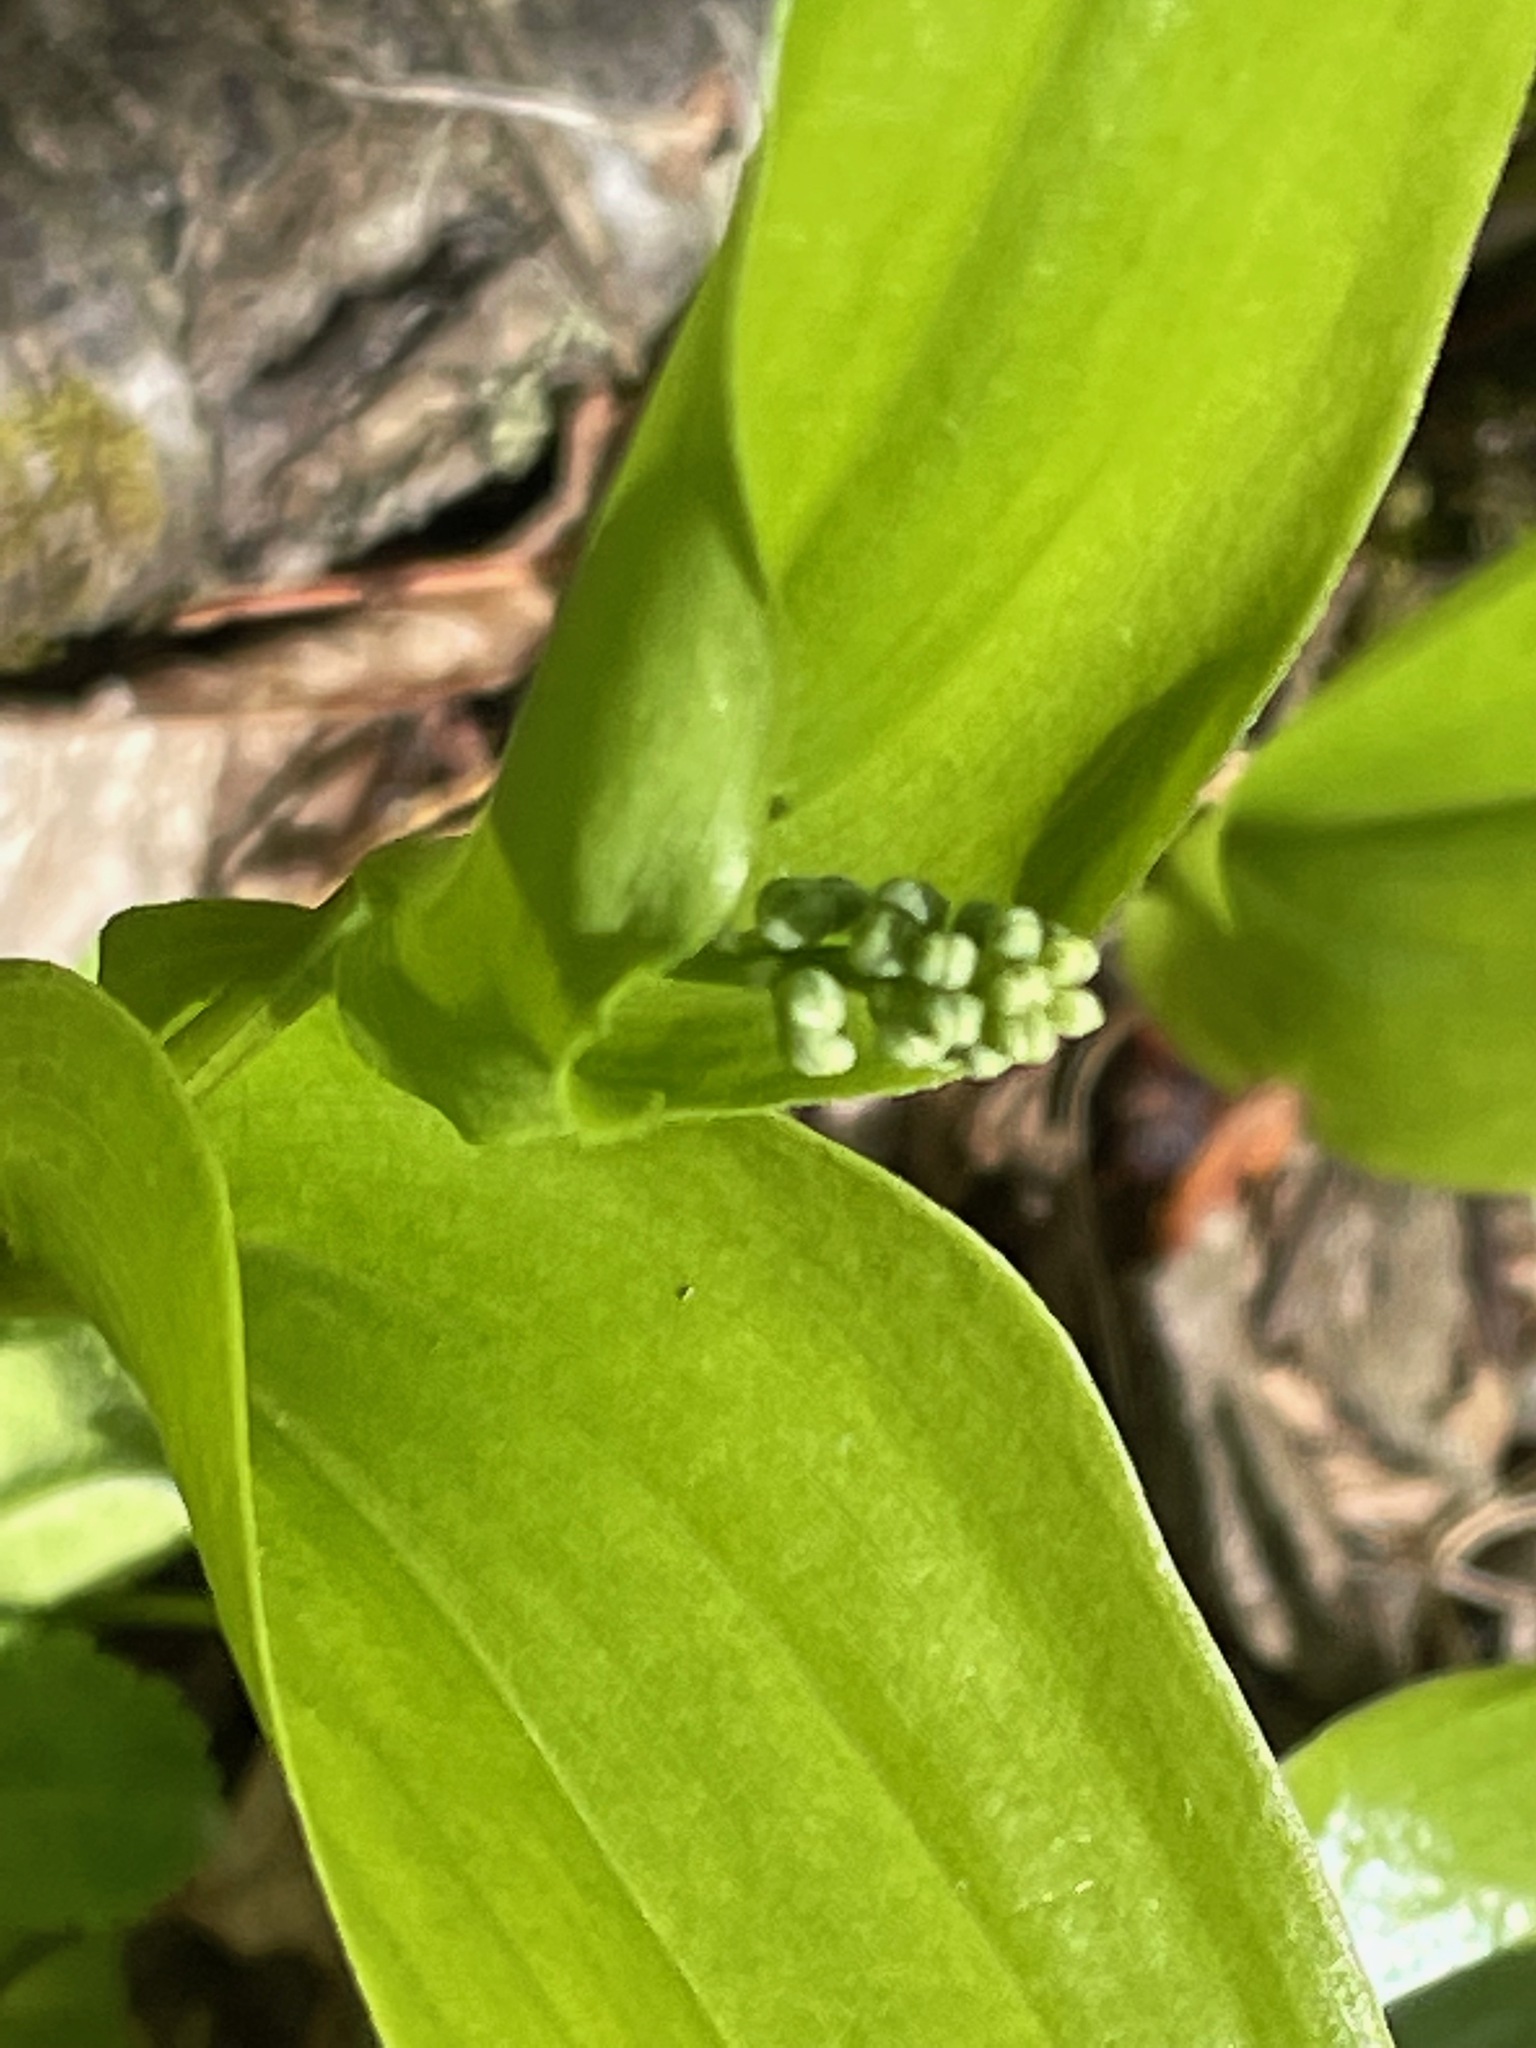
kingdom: Plantae
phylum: Tracheophyta
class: Liliopsida
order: Asparagales
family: Asparagaceae
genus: Maianthemum
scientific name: Maianthemum canadense
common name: False lily-of-the-valley
